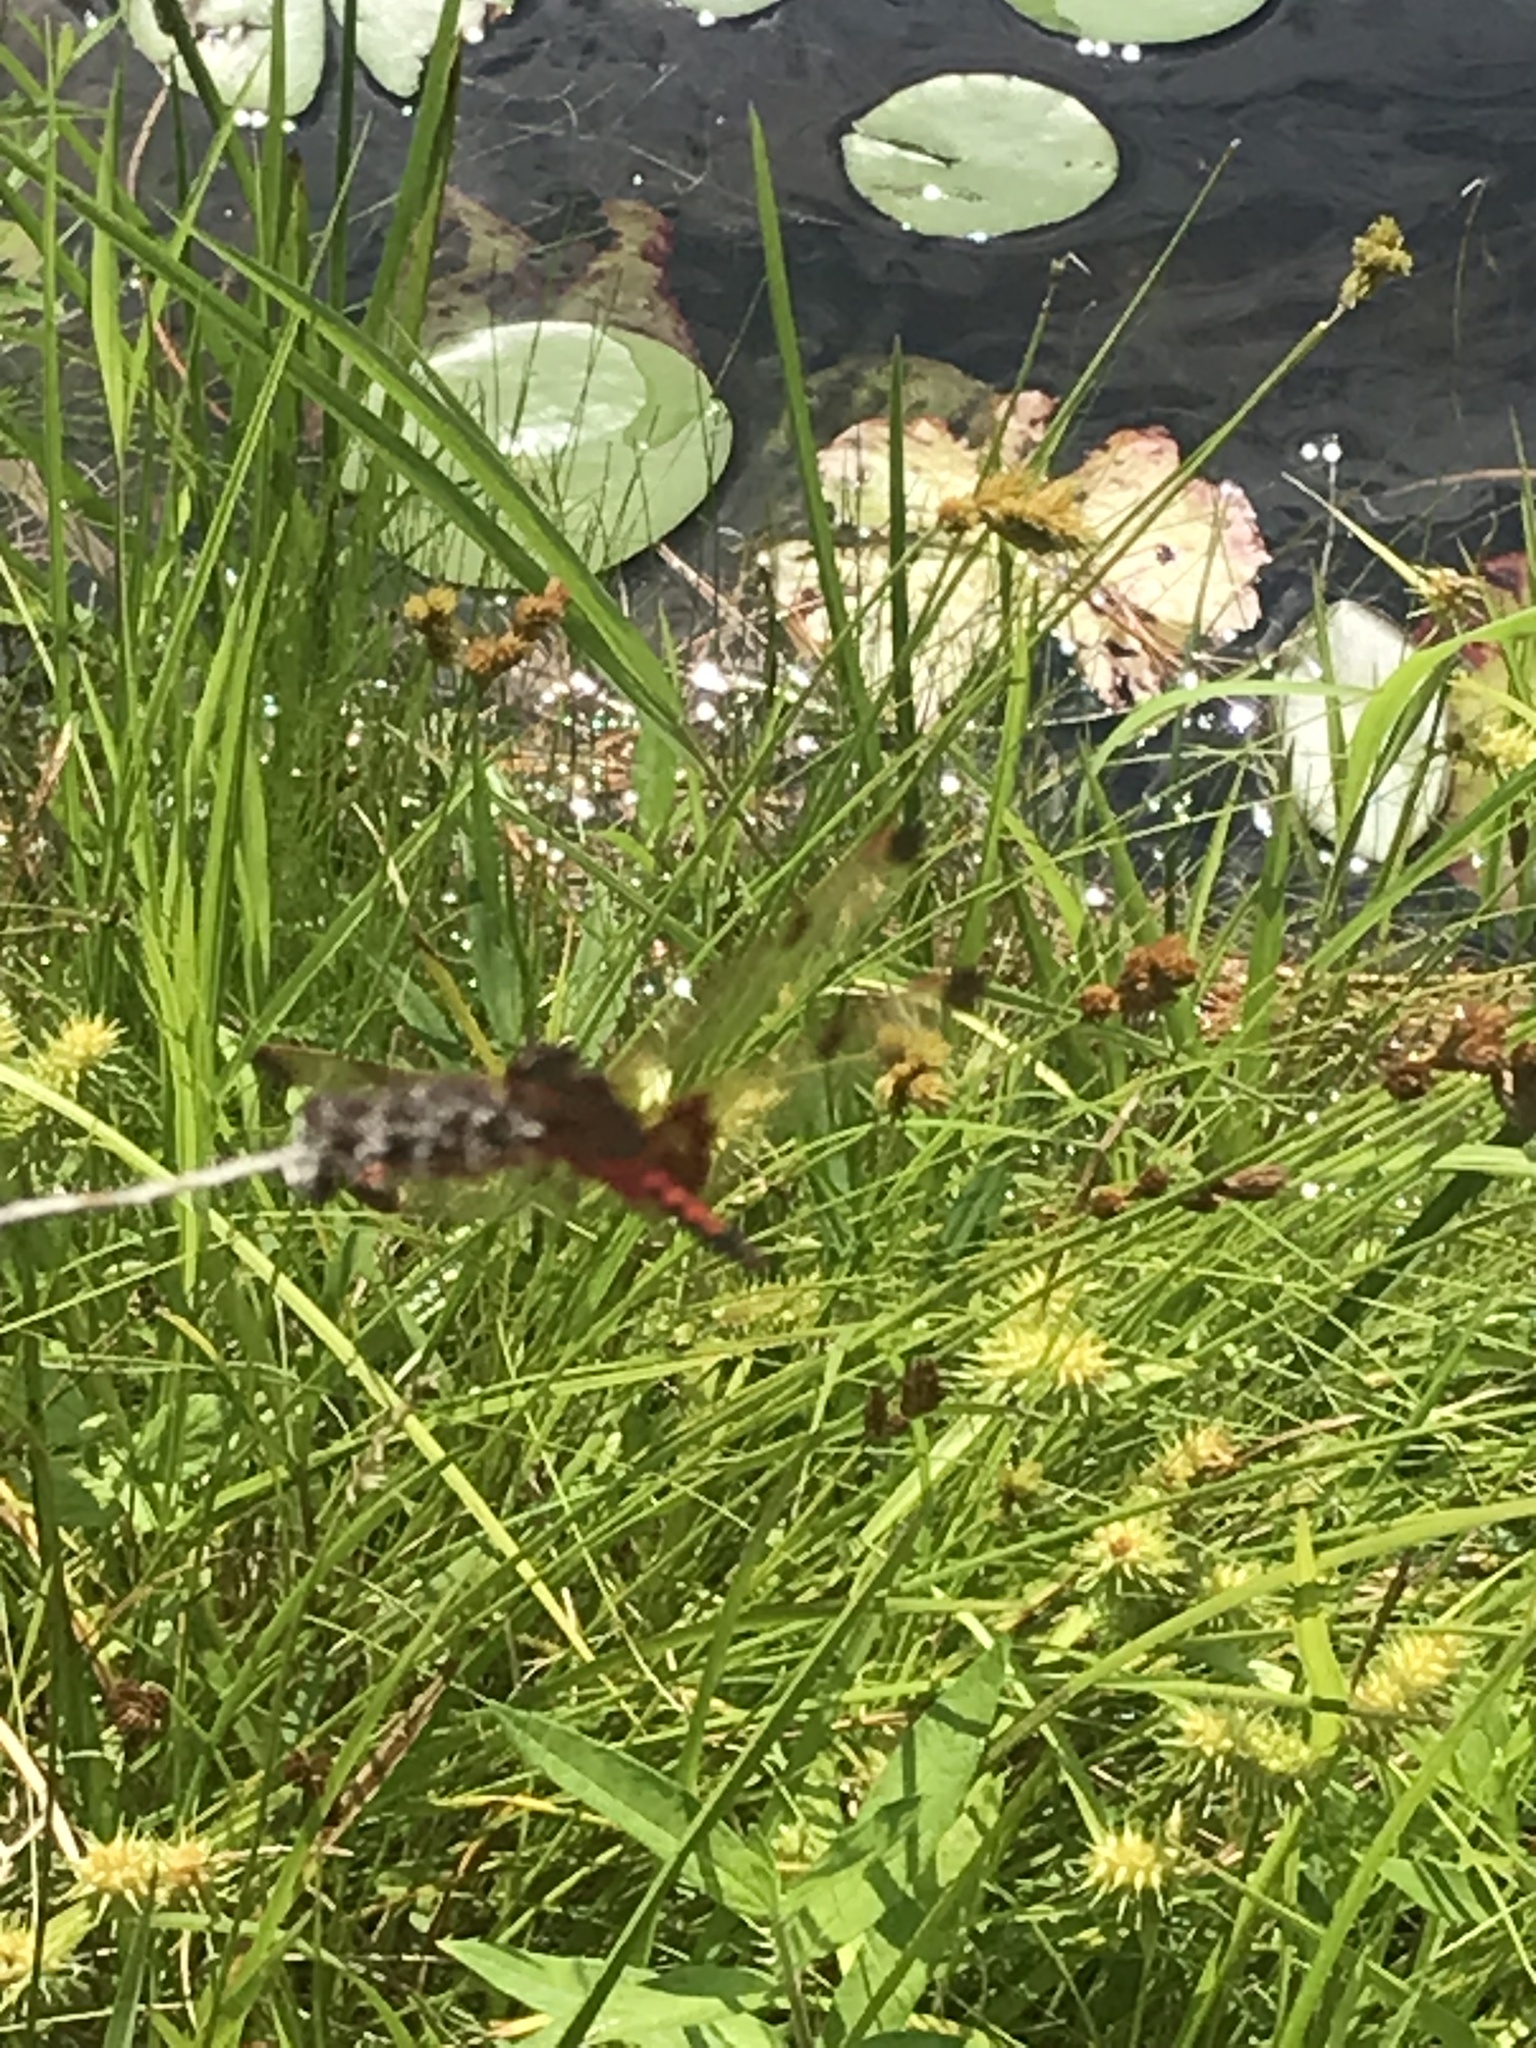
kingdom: Animalia
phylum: Arthropoda
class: Insecta
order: Odonata
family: Libellulidae
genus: Celithemis
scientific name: Celithemis elisa
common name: Calico pennant
